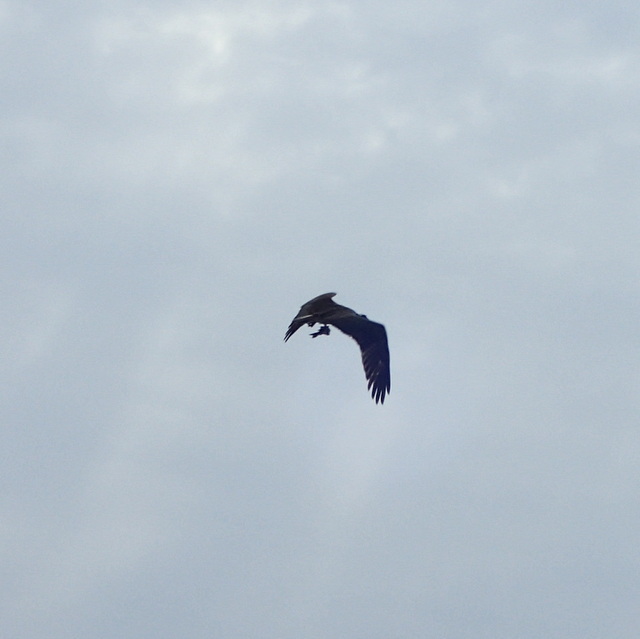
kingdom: Animalia
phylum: Chordata
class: Aves
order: Accipitriformes
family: Pandionidae
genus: Pandion
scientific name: Pandion haliaetus
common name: Osprey
